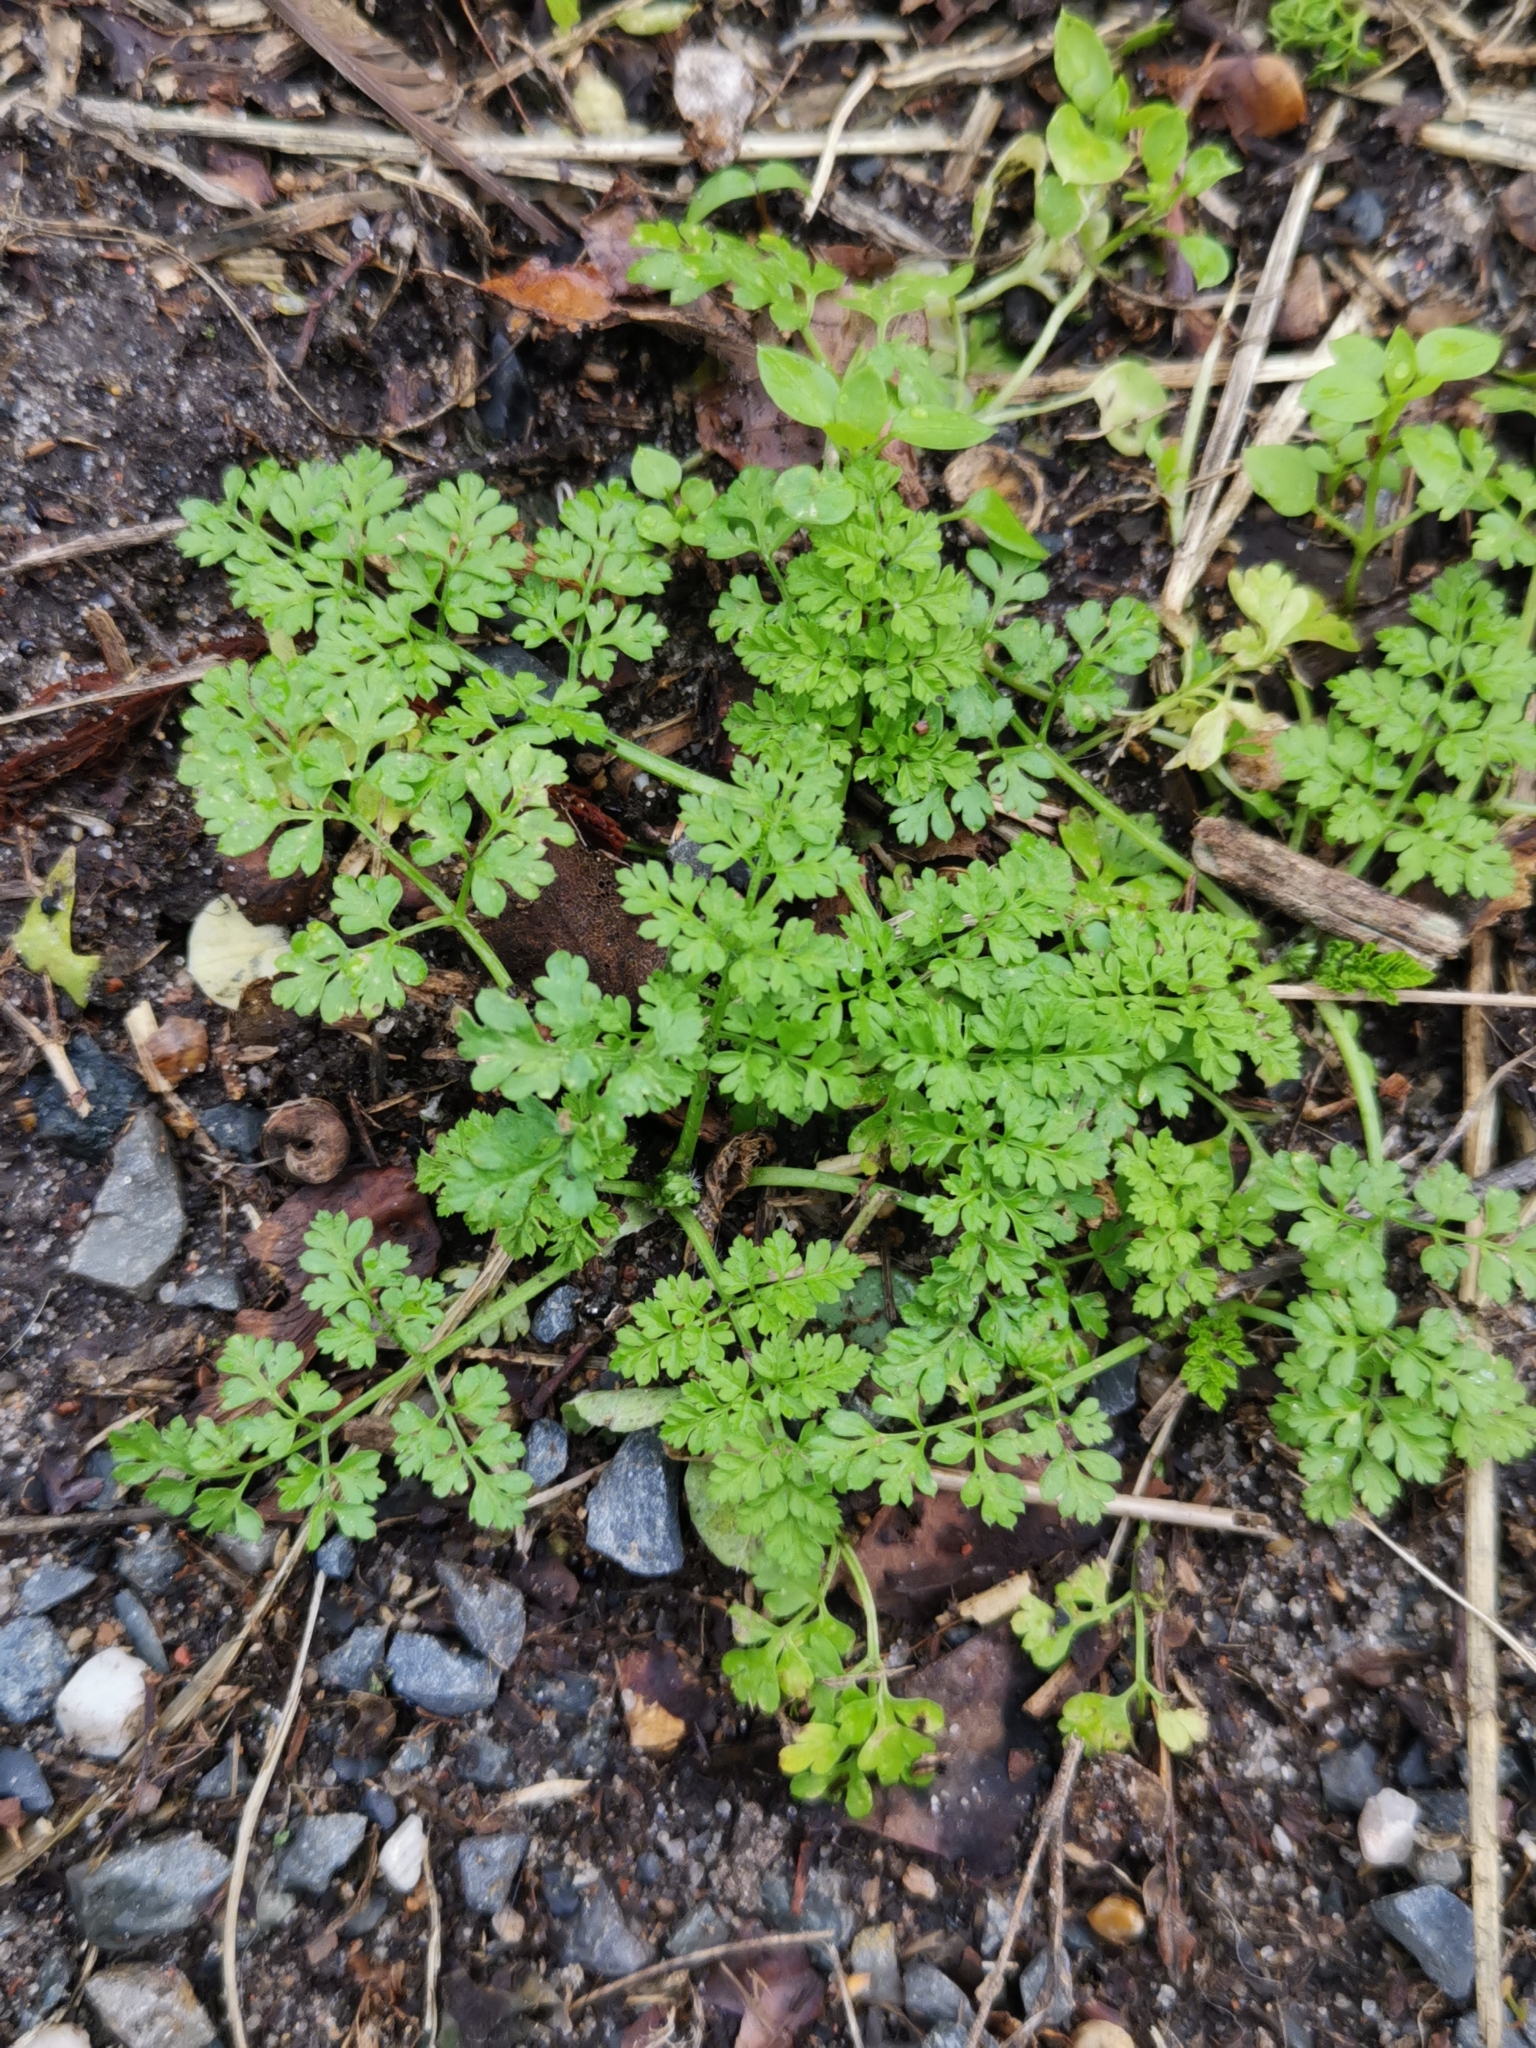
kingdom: Plantae
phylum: Tracheophyta
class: Magnoliopsida
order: Apiales
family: Apiaceae
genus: Anthriscus
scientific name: Anthriscus caucalis
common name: Bur chervil
